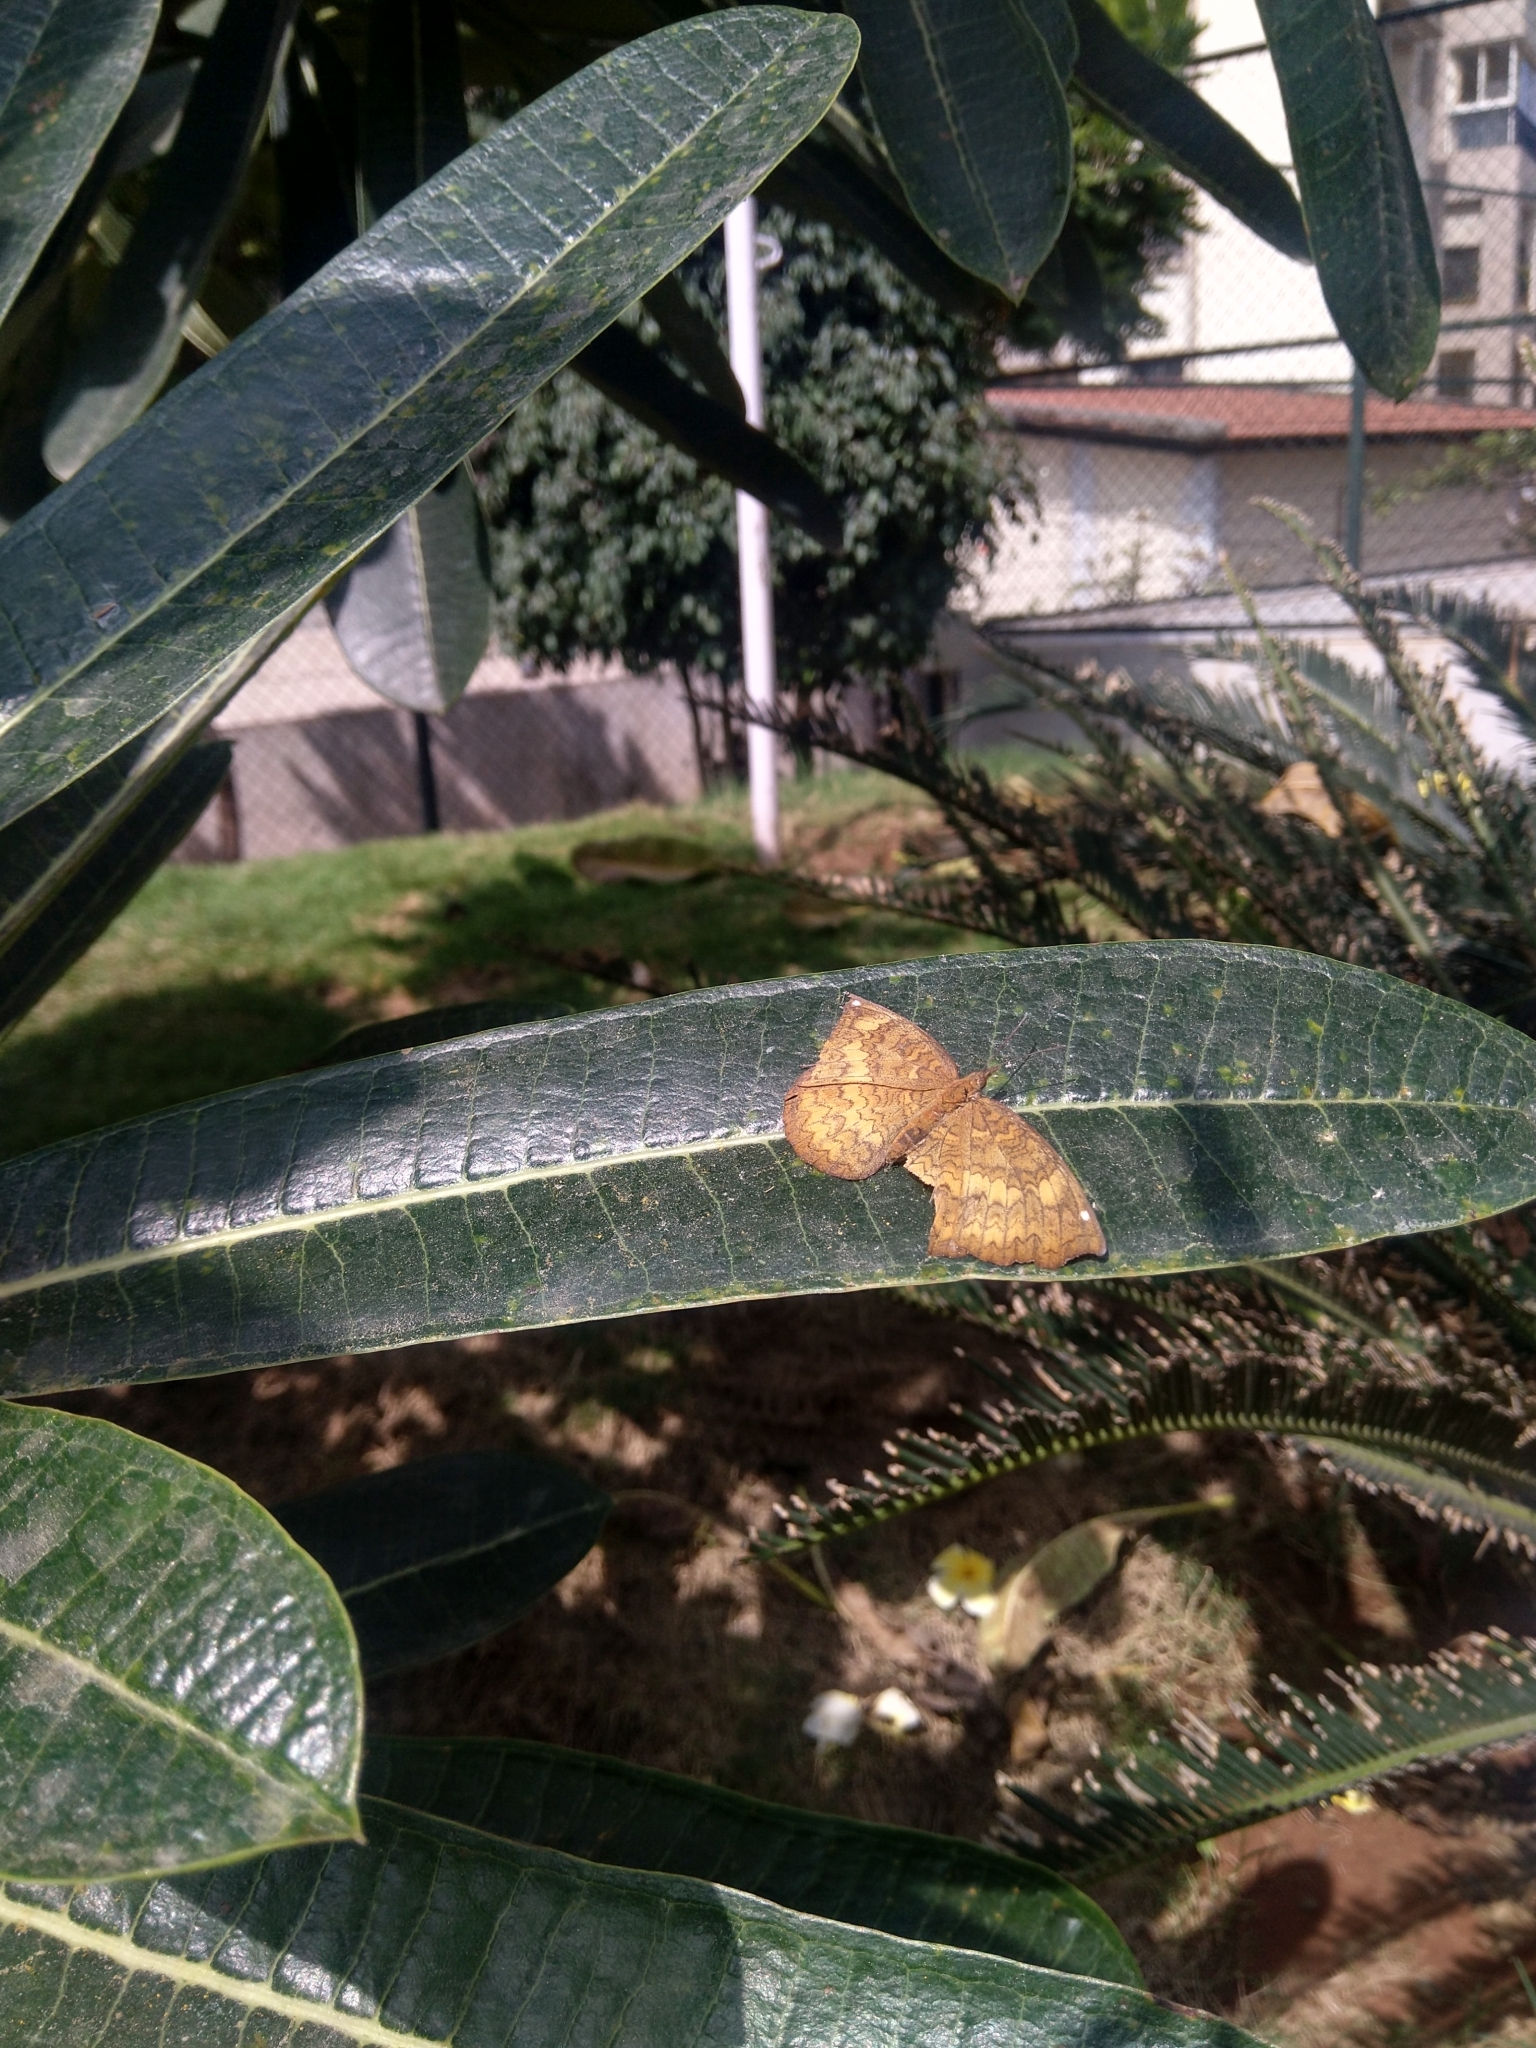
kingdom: Animalia
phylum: Arthropoda
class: Insecta
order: Lepidoptera
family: Nymphalidae
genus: Ariadne
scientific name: Ariadne merione
